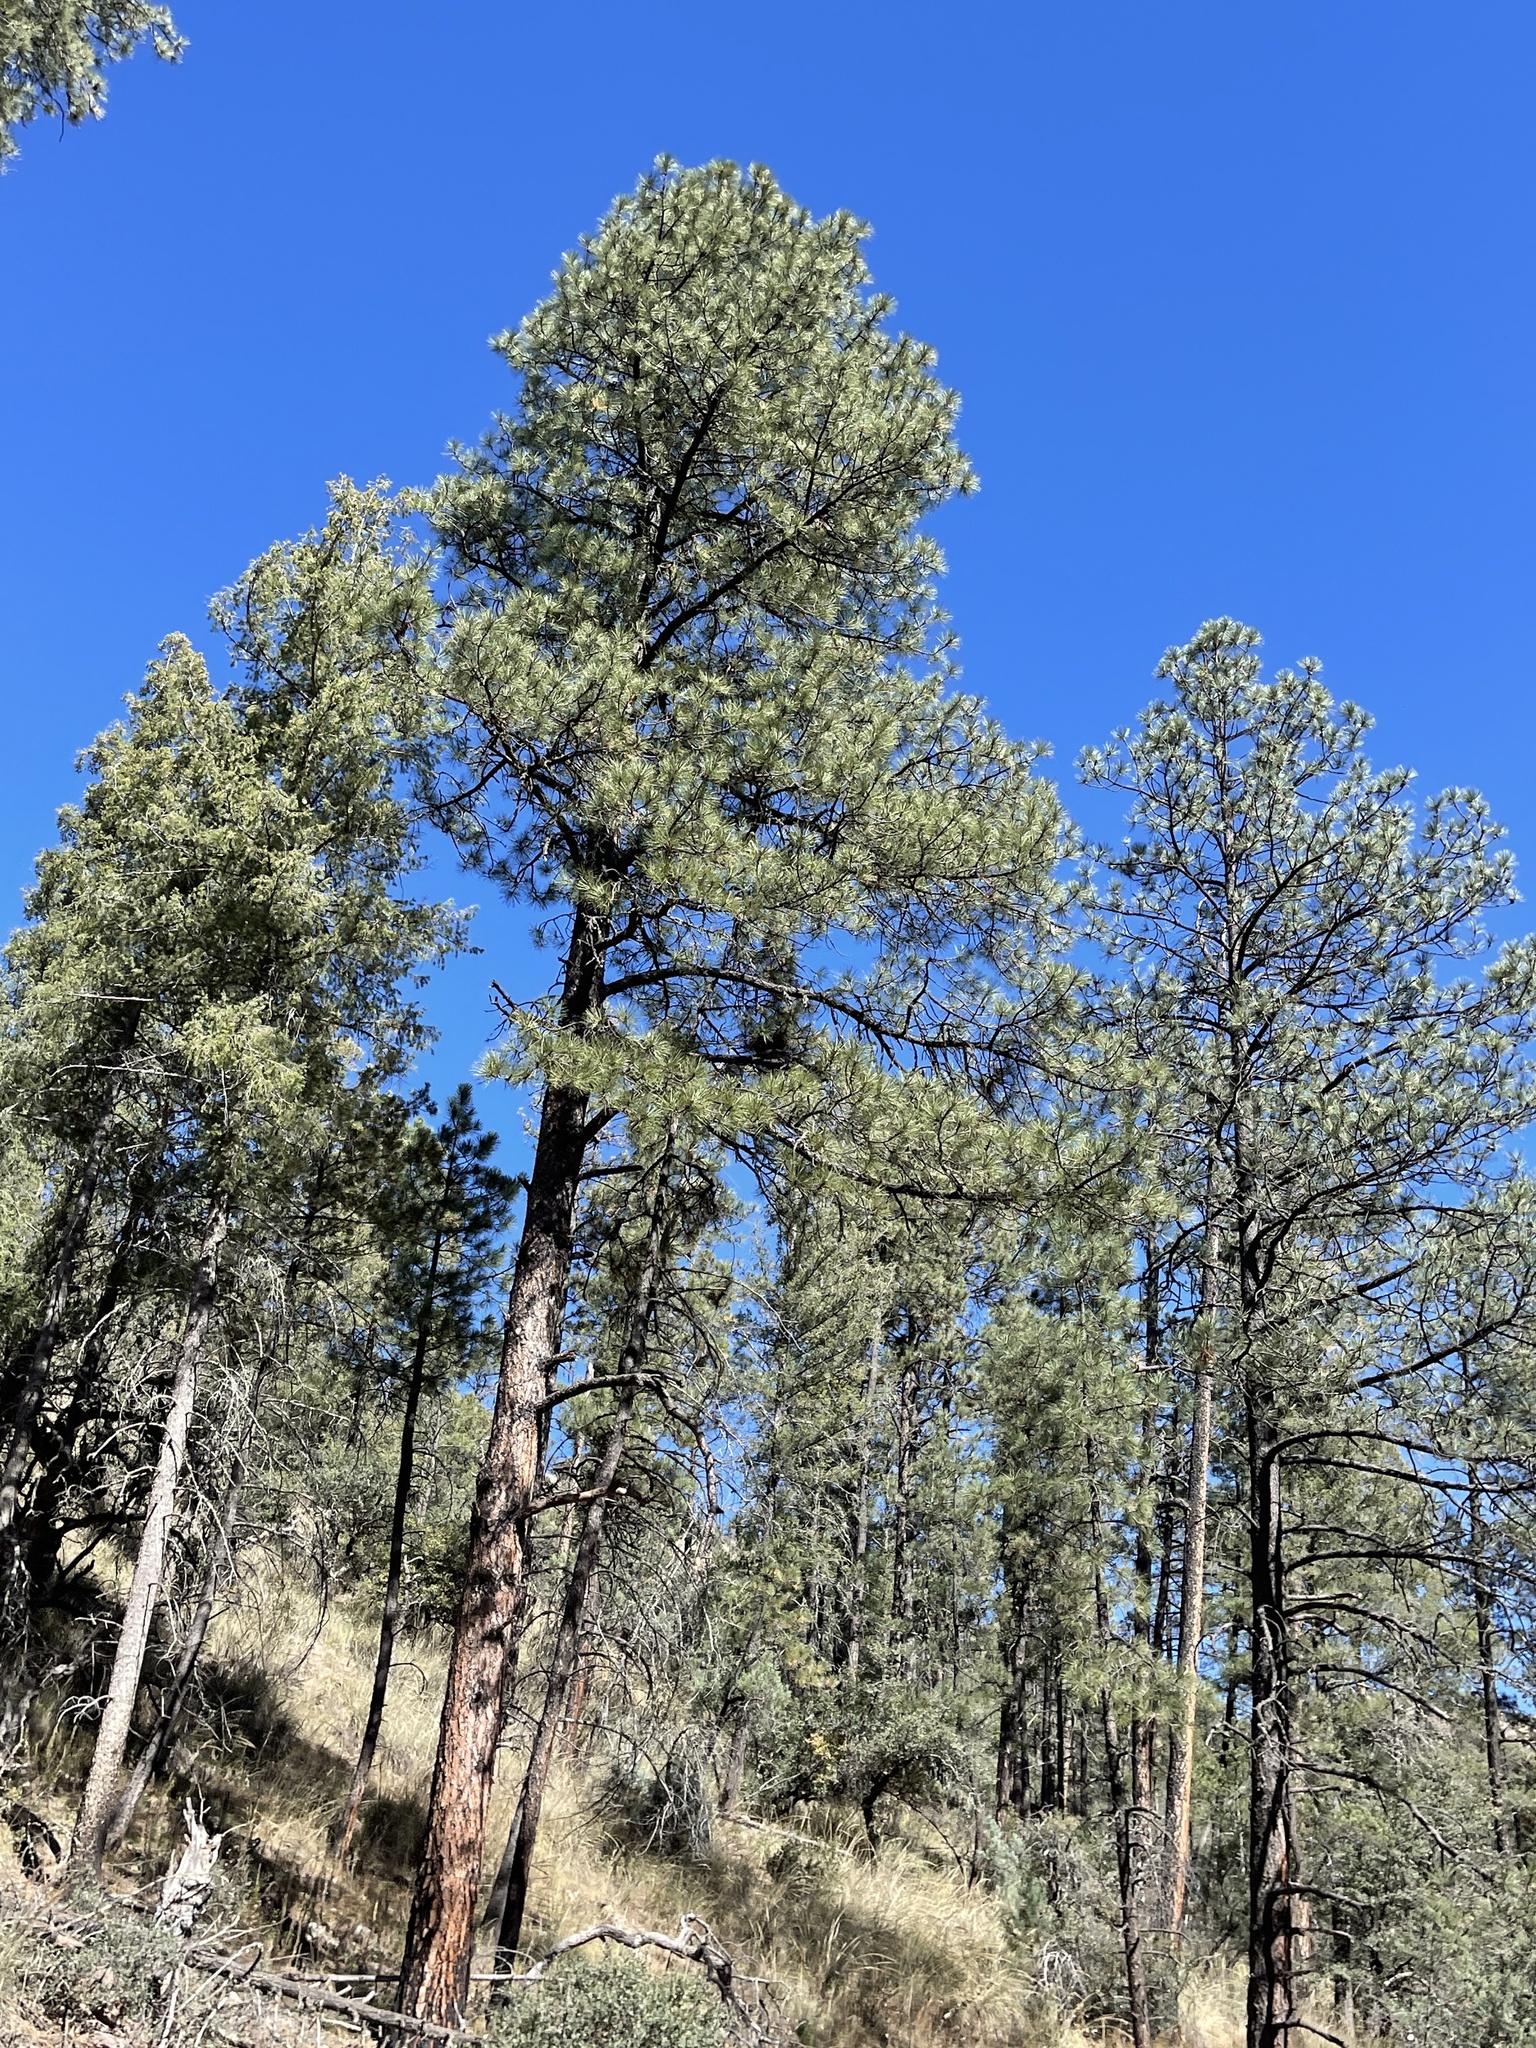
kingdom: Plantae
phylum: Tracheophyta
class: Pinopsida
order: Pinales
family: Pinaceae
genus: Pinus
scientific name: Pinus ponderosa
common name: Western yellow-pine
